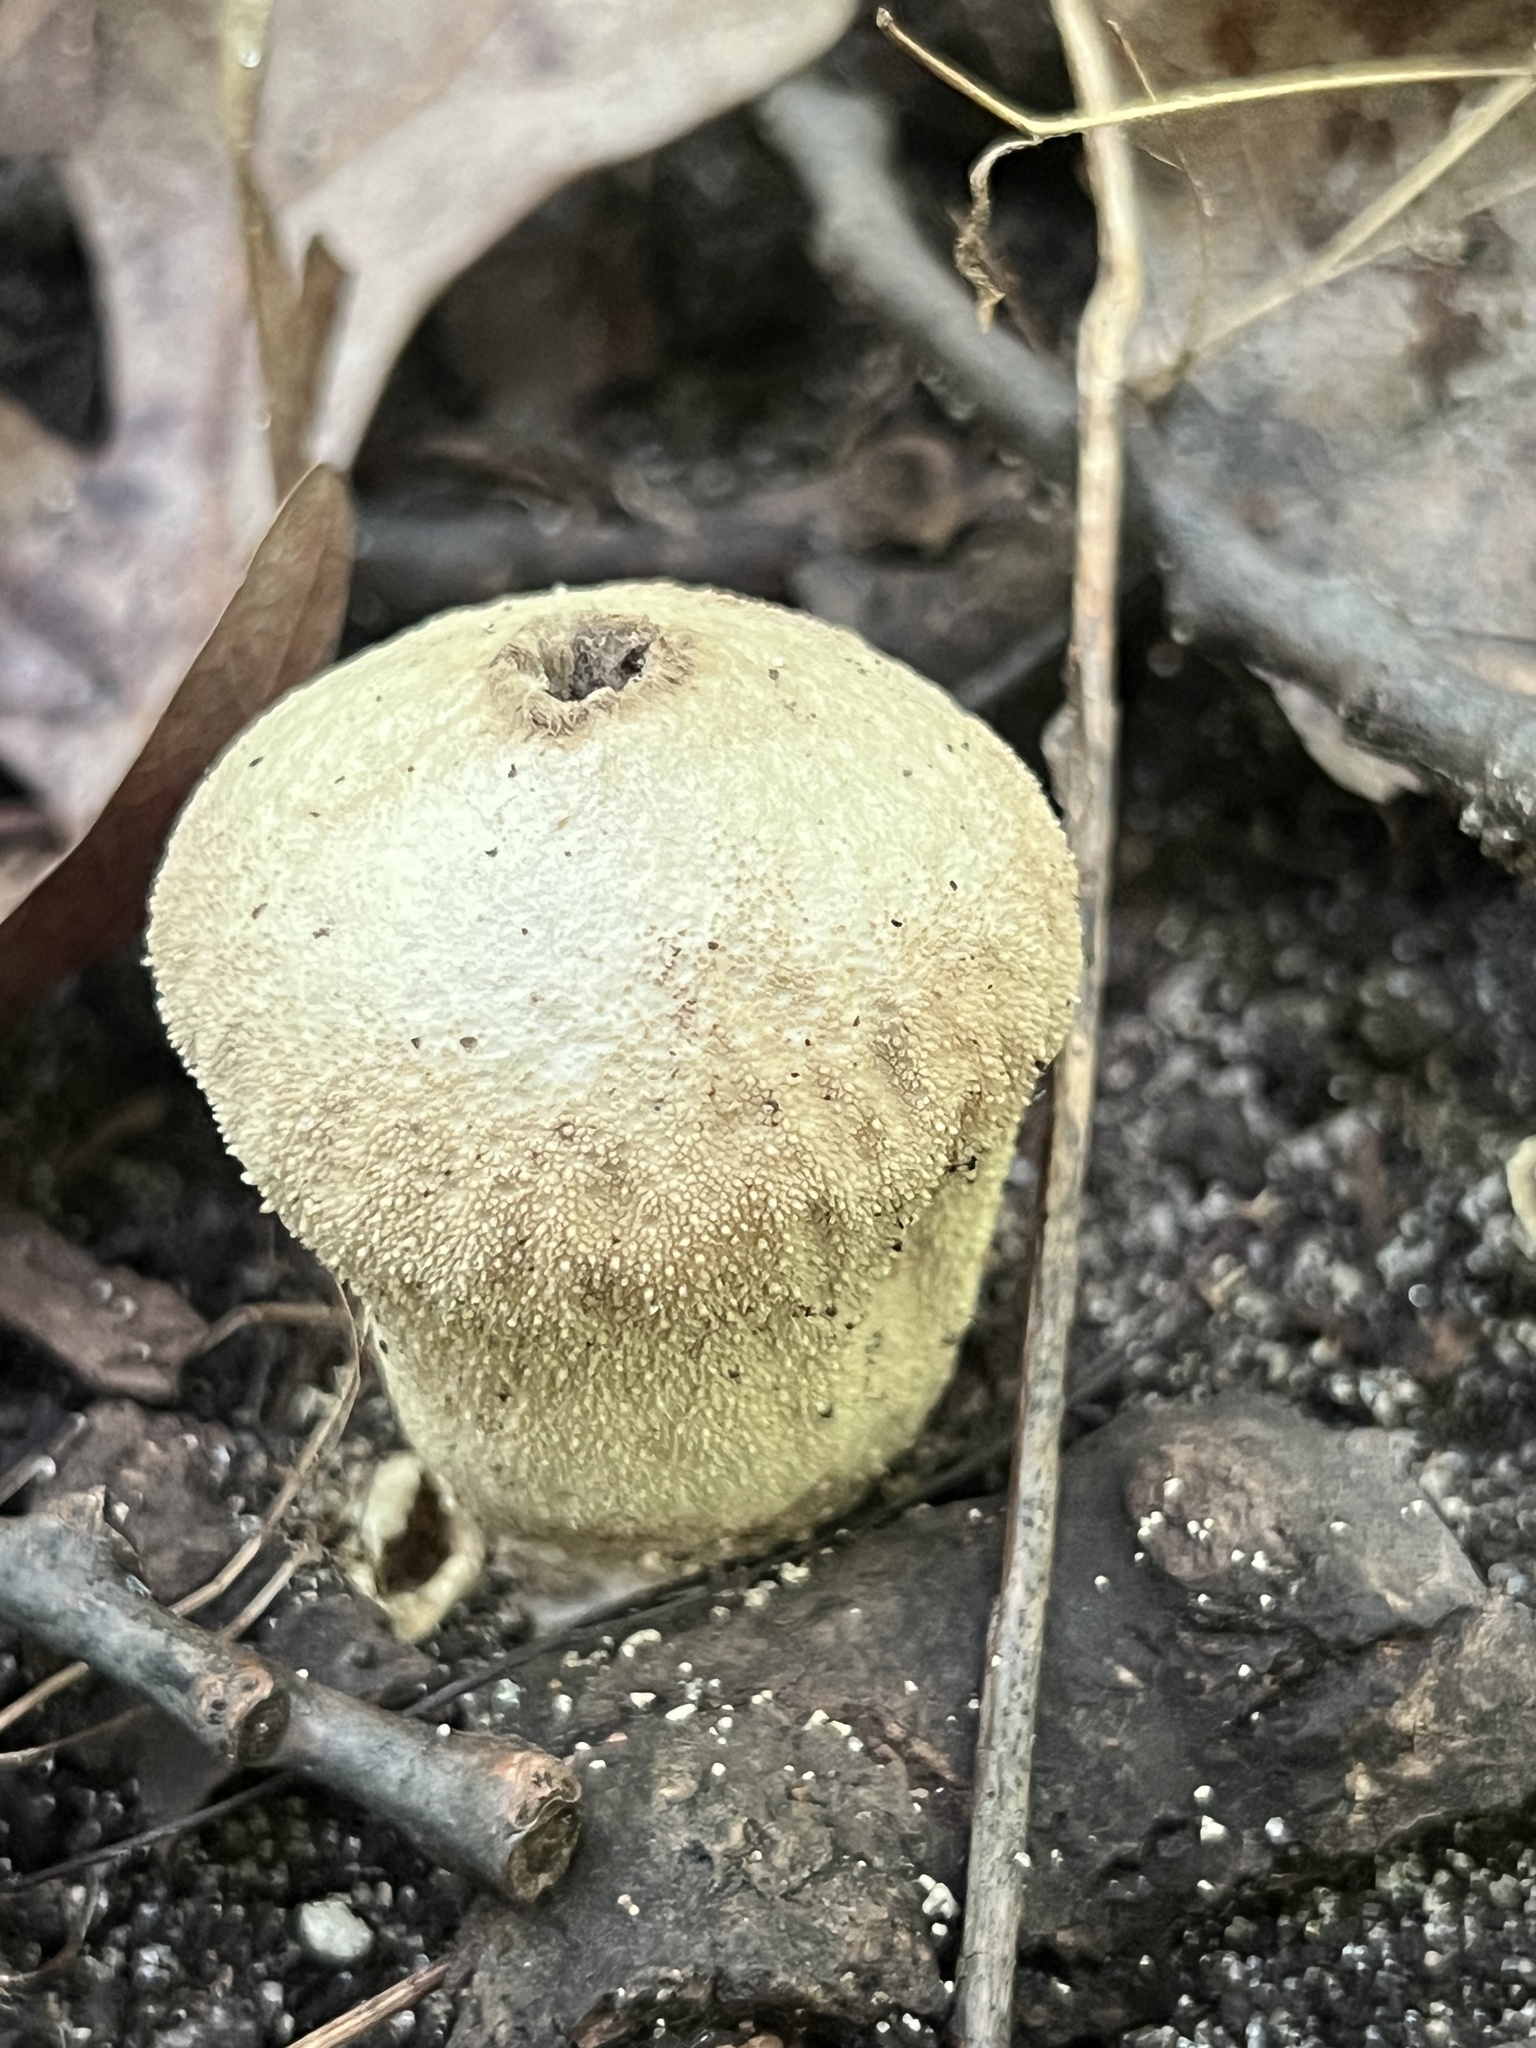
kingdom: Fungi
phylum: Basidiomycota
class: Agaricomycetes
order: Agaricales
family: Lycoperdaceae
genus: Lycoperdon
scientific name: Lycoperdon perlatum
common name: Common puffball
